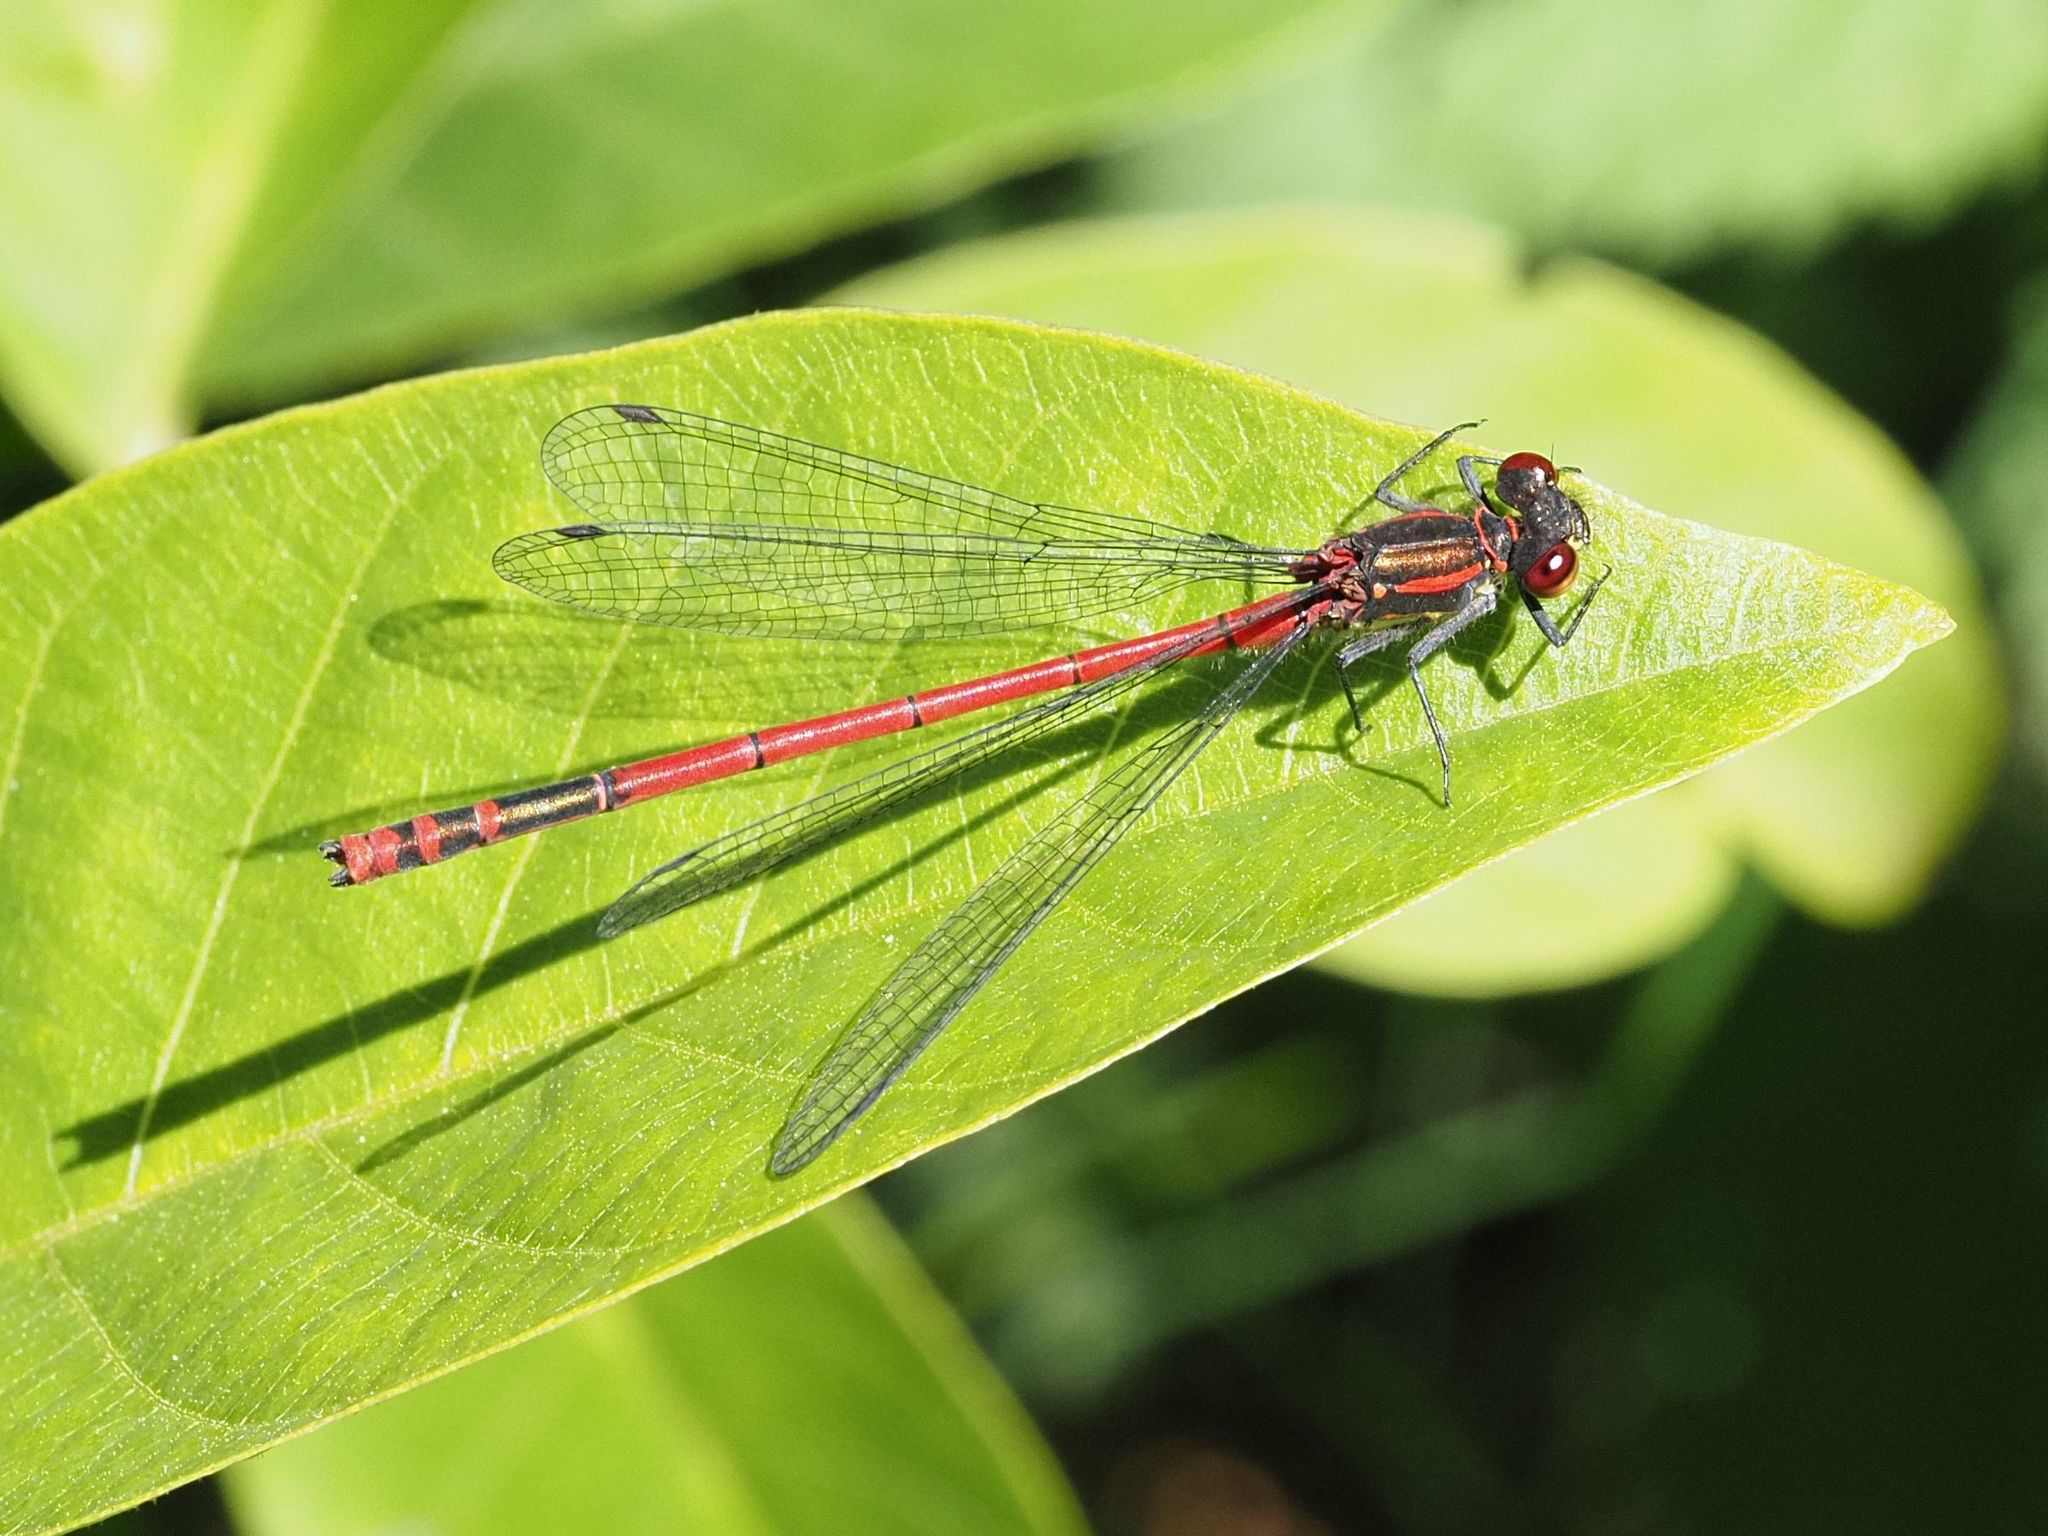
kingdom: Animalia
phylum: Arthropoda
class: Insecta
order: Odonata
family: Coenagrionidae
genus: Pyrrhosoma
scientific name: Pyrrhosoma nymphula
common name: Large red damsel
